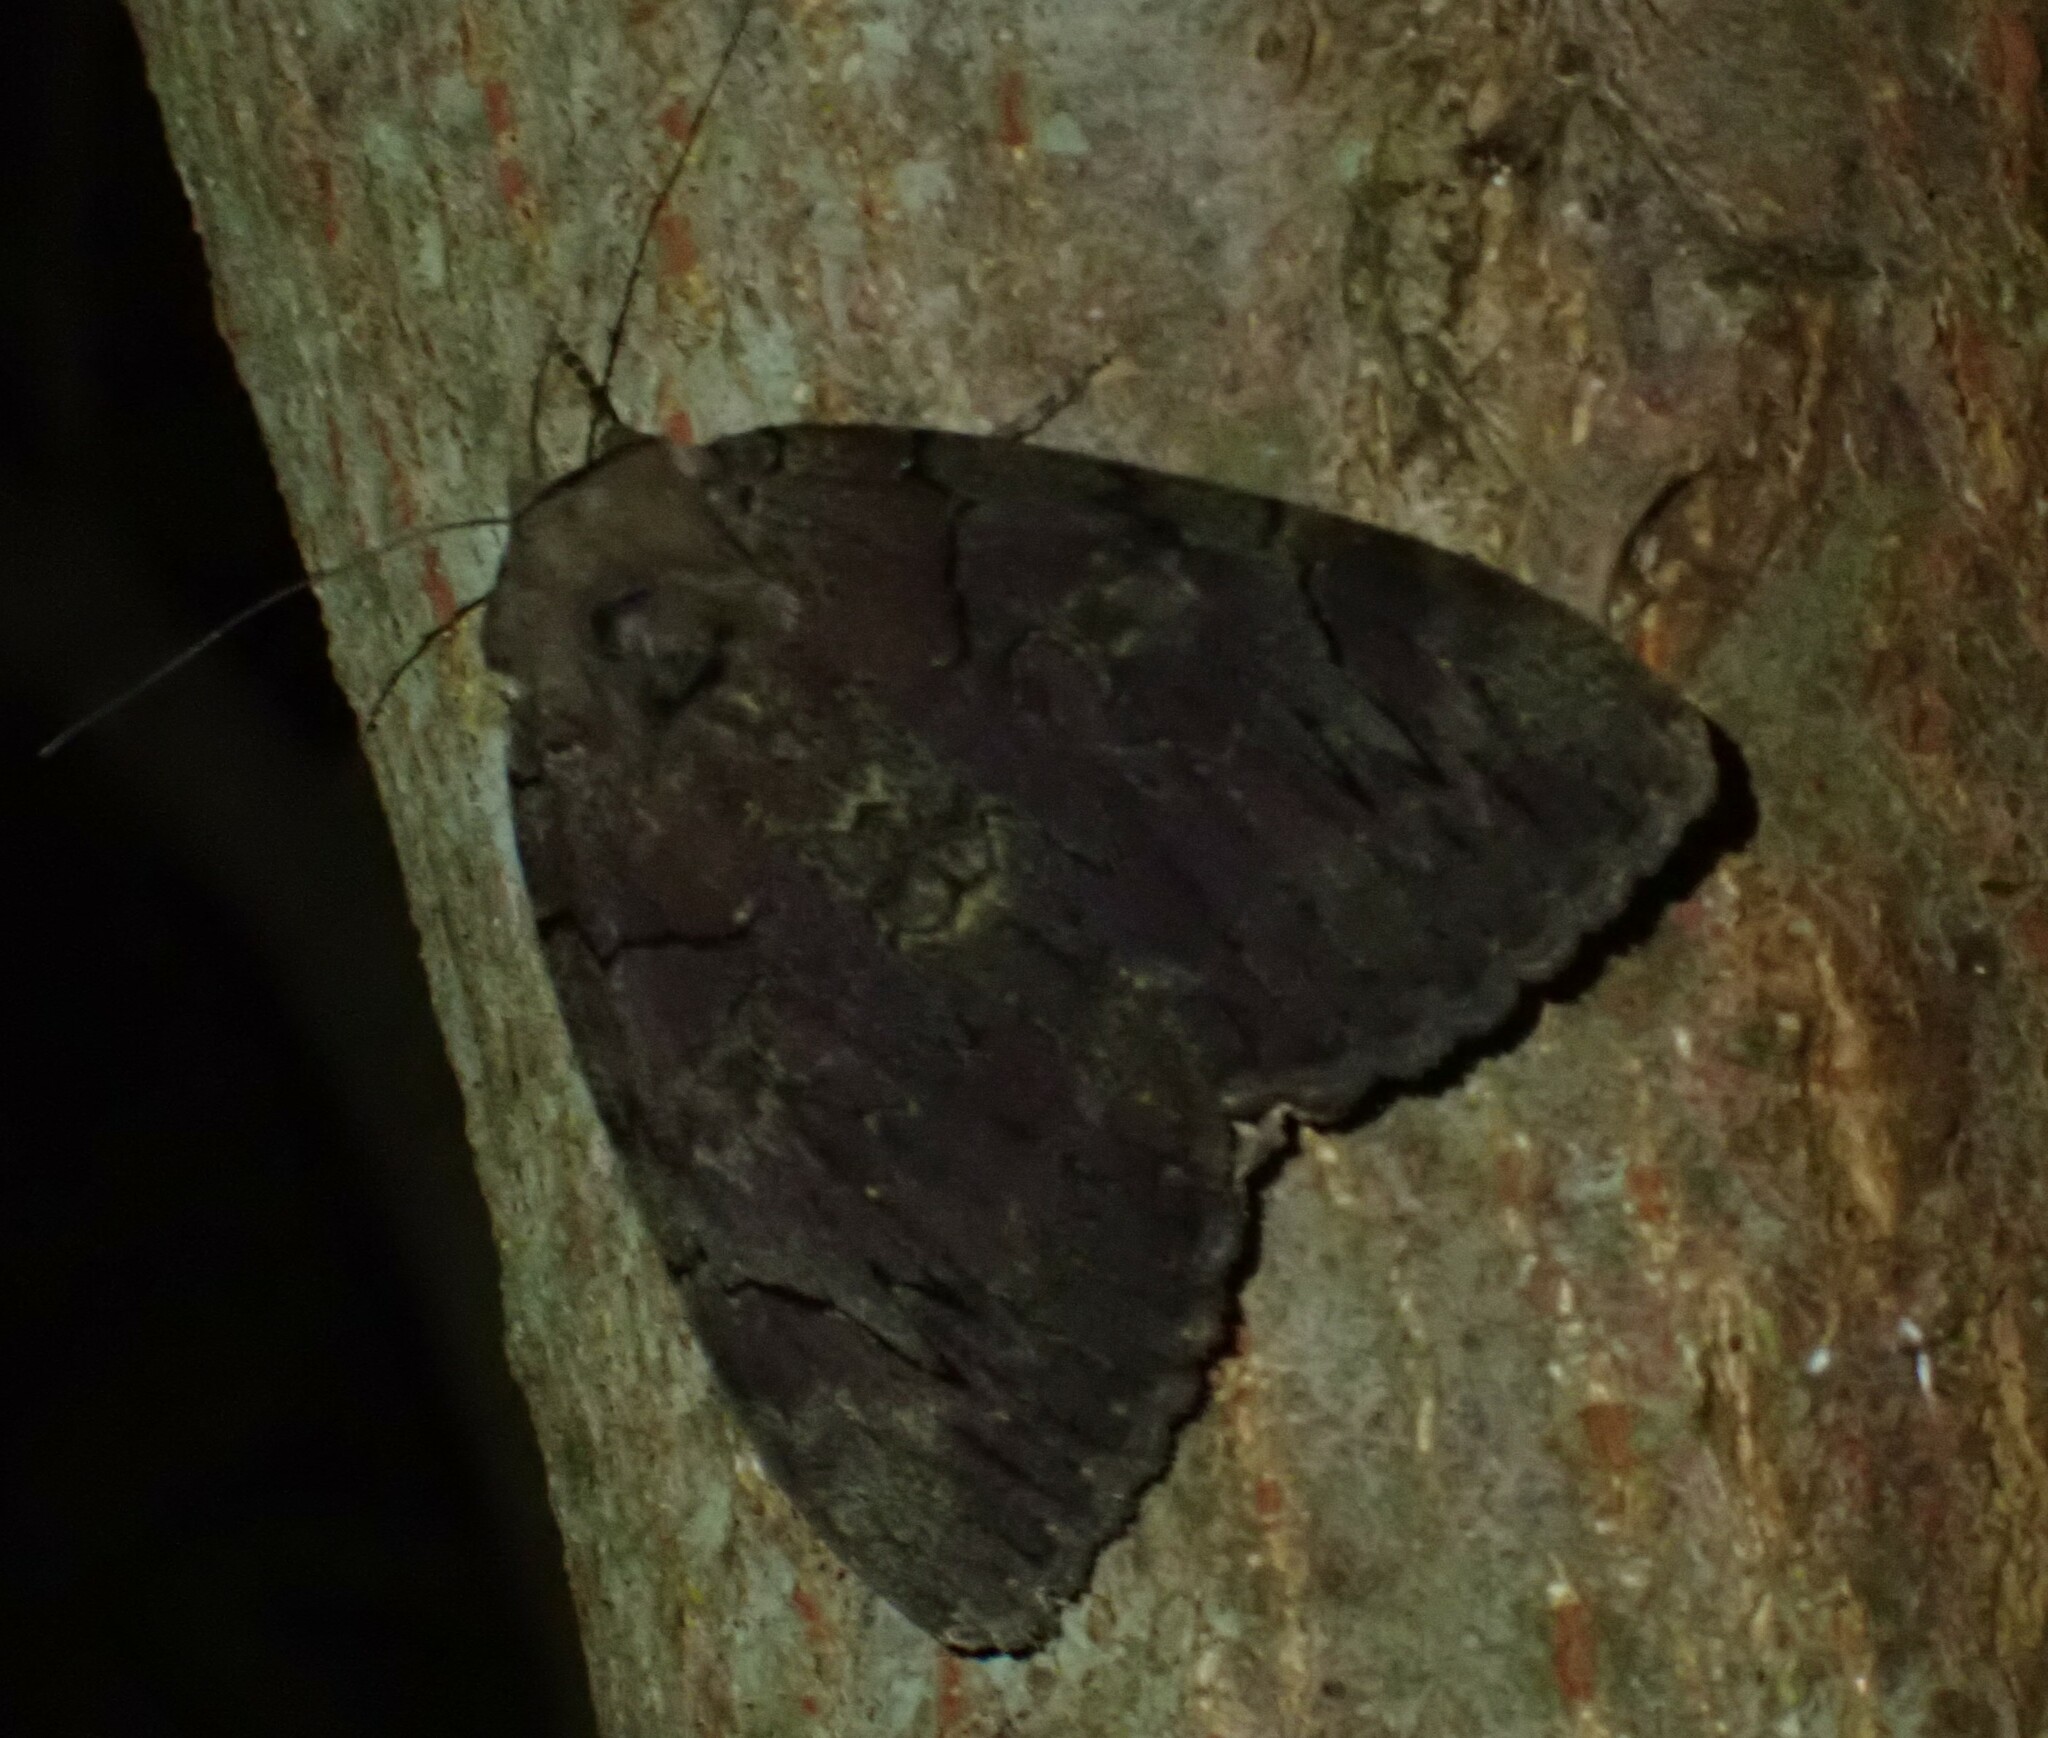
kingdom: Animalia
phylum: Arthropoda
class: Insecta
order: Lepidoptera
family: Erebidae
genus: Catocala
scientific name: Catocala cara
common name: Darling underwing
